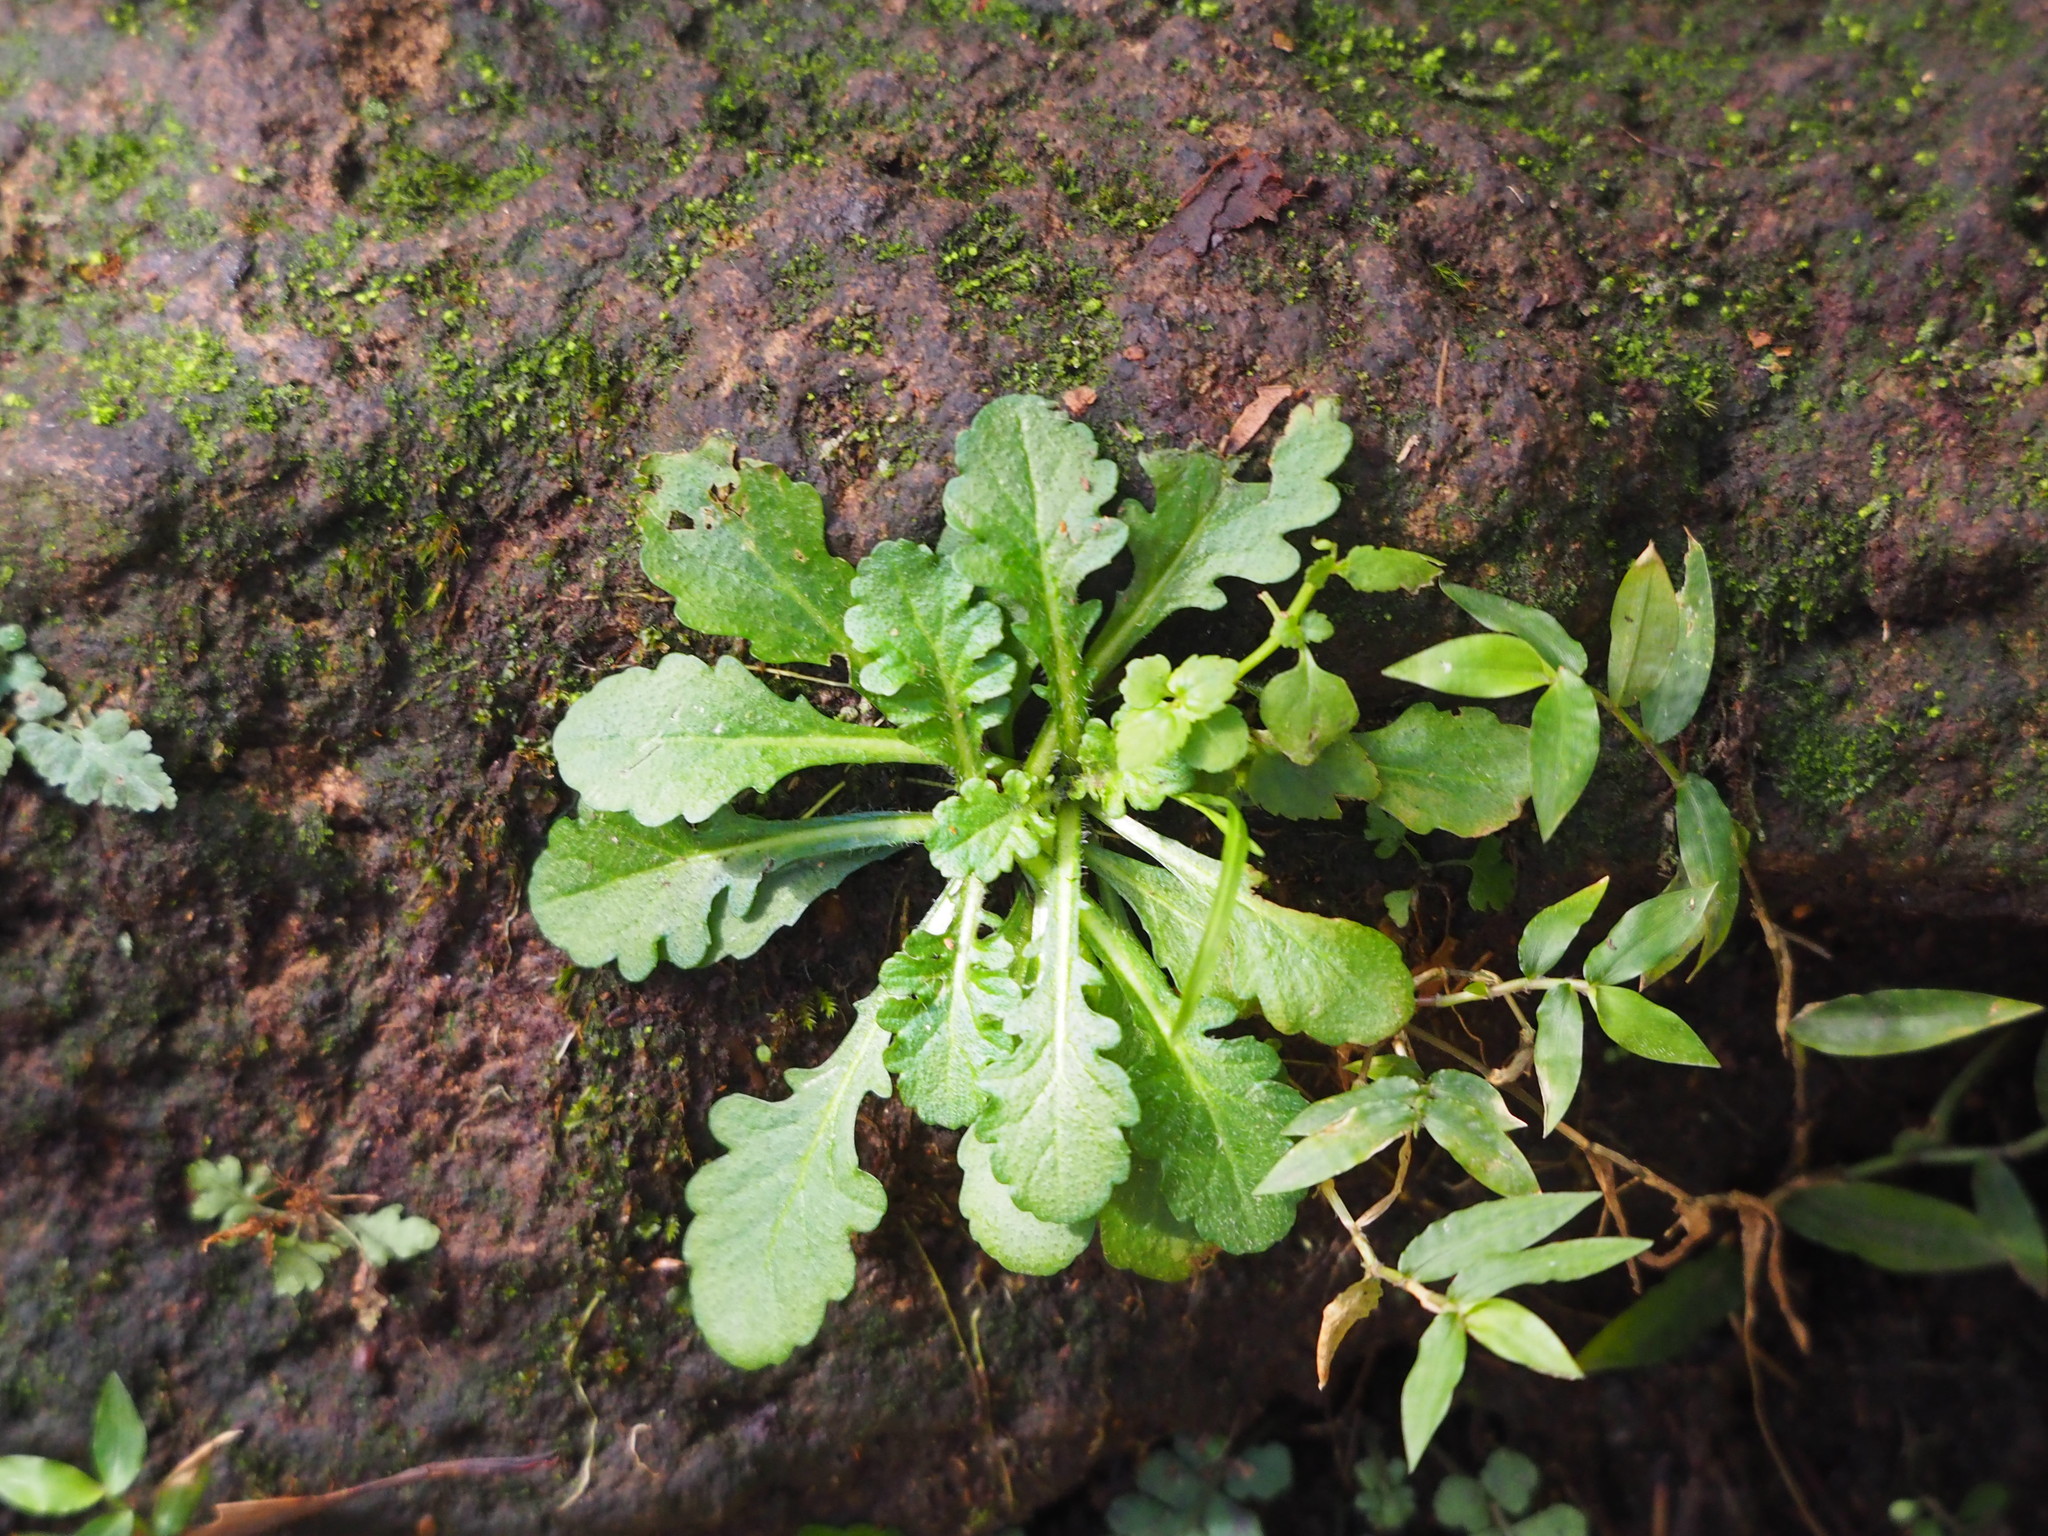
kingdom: Plantae
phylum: Tracheophyta
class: Magnoliopsida
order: Lamiales
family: Mazaceae
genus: Mazus
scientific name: Mazus fauriei
